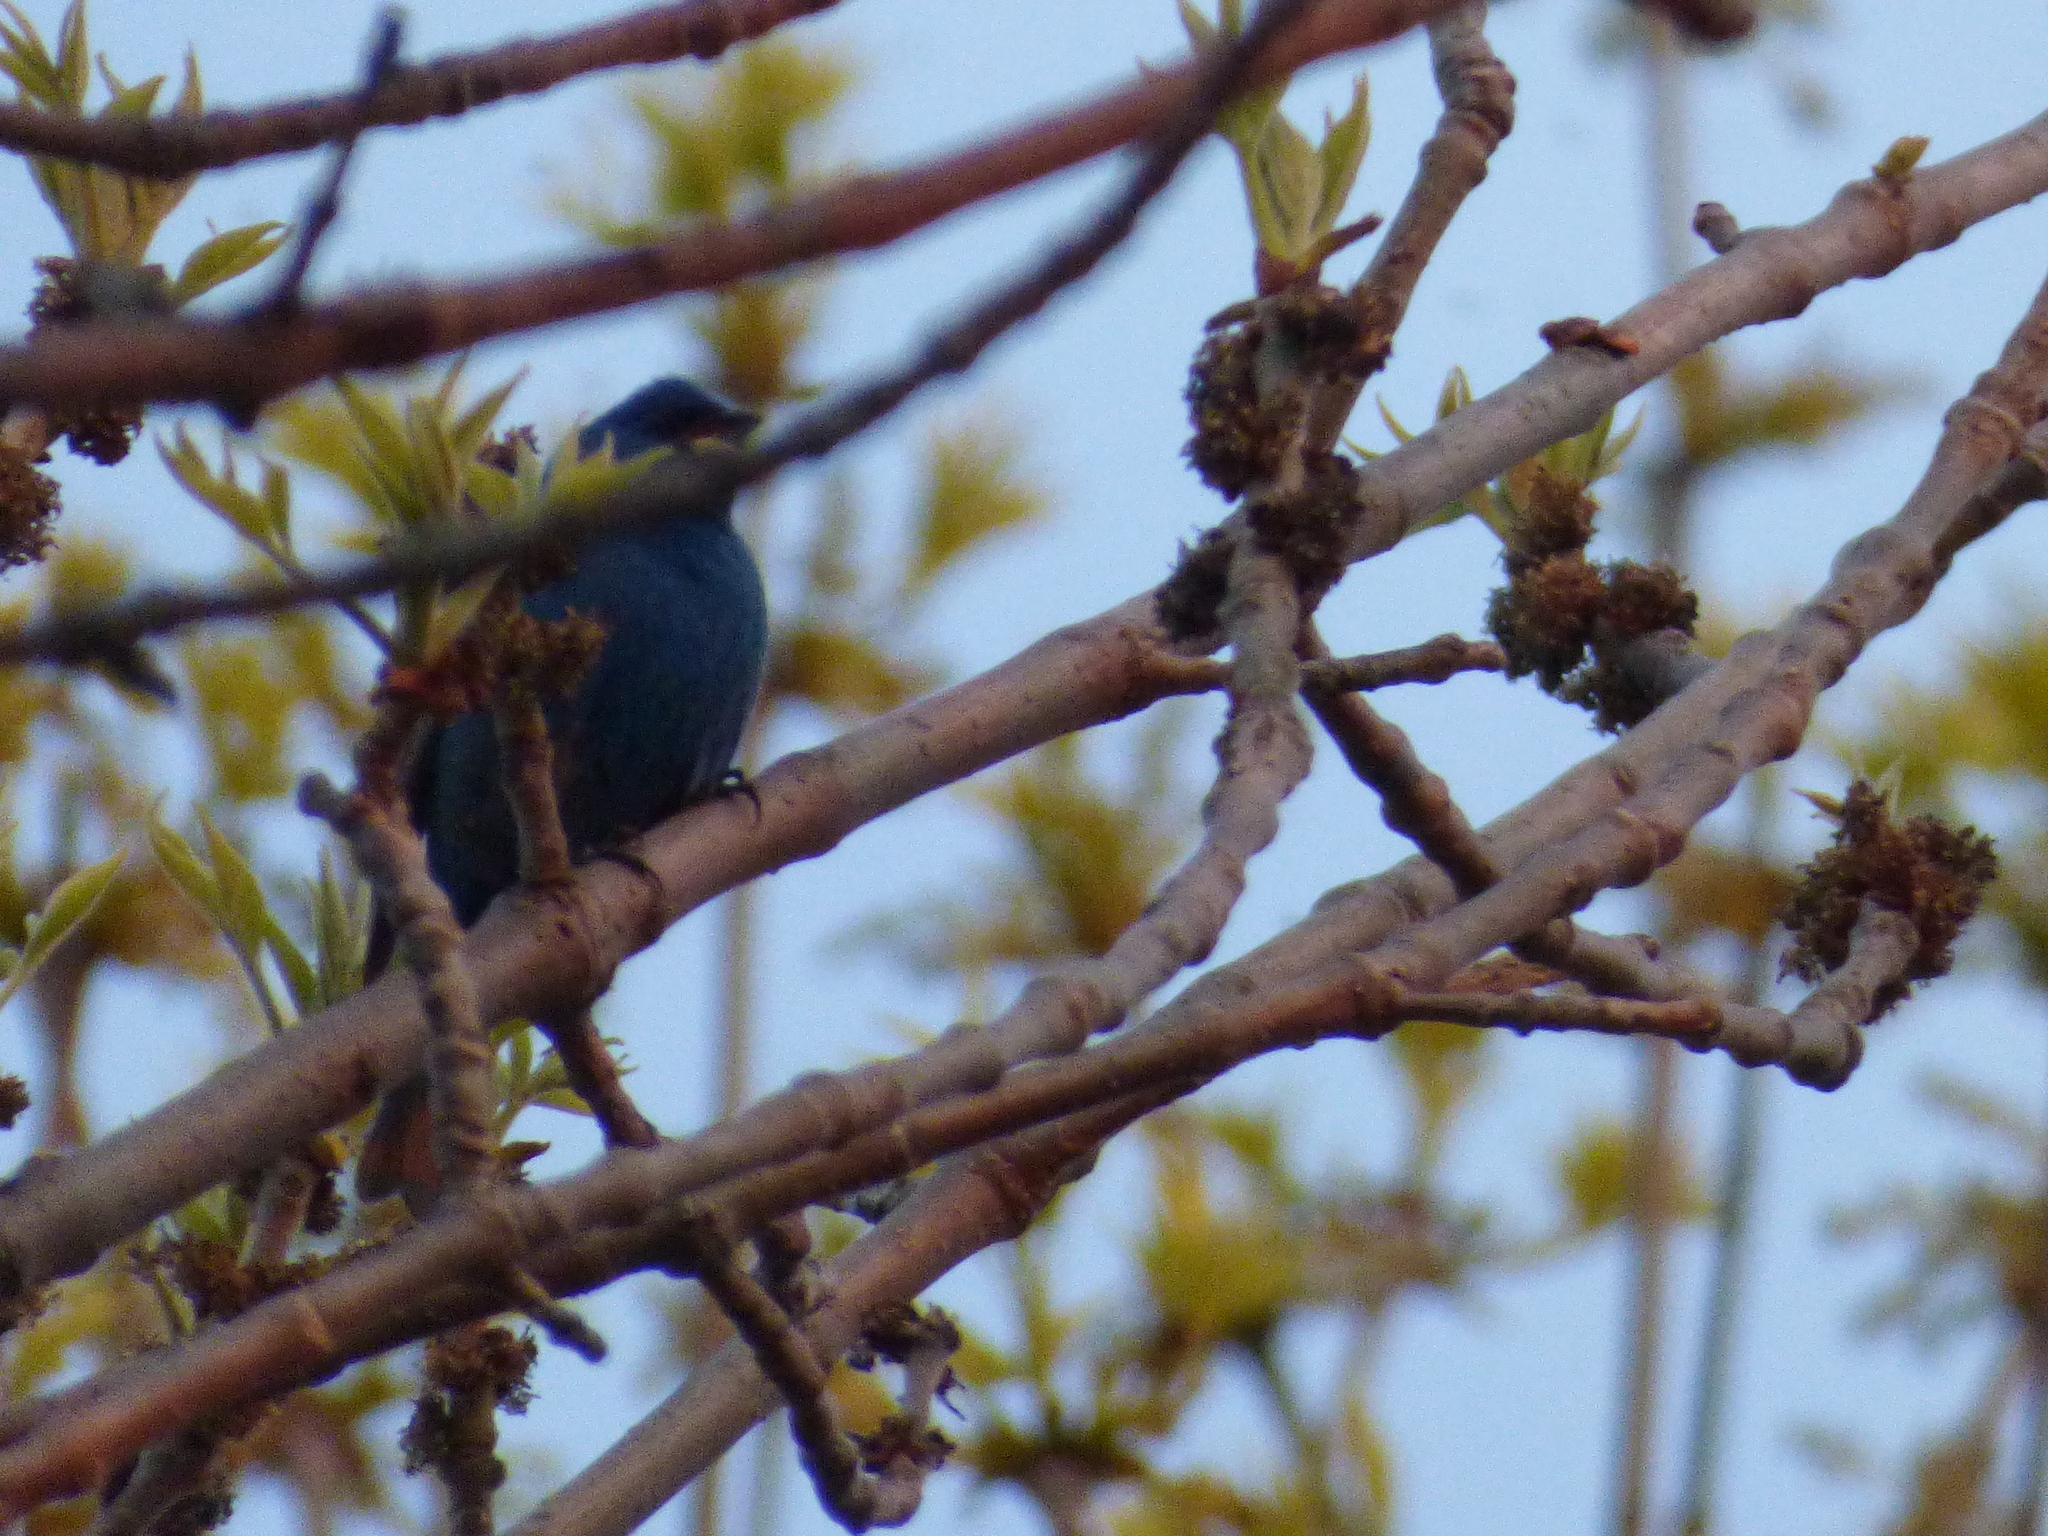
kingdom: Animalia
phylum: Chordata
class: Aves
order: Passeriformes
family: Cardinalidae
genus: Passerina
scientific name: Passerina cyanea
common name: Indigo bunting
